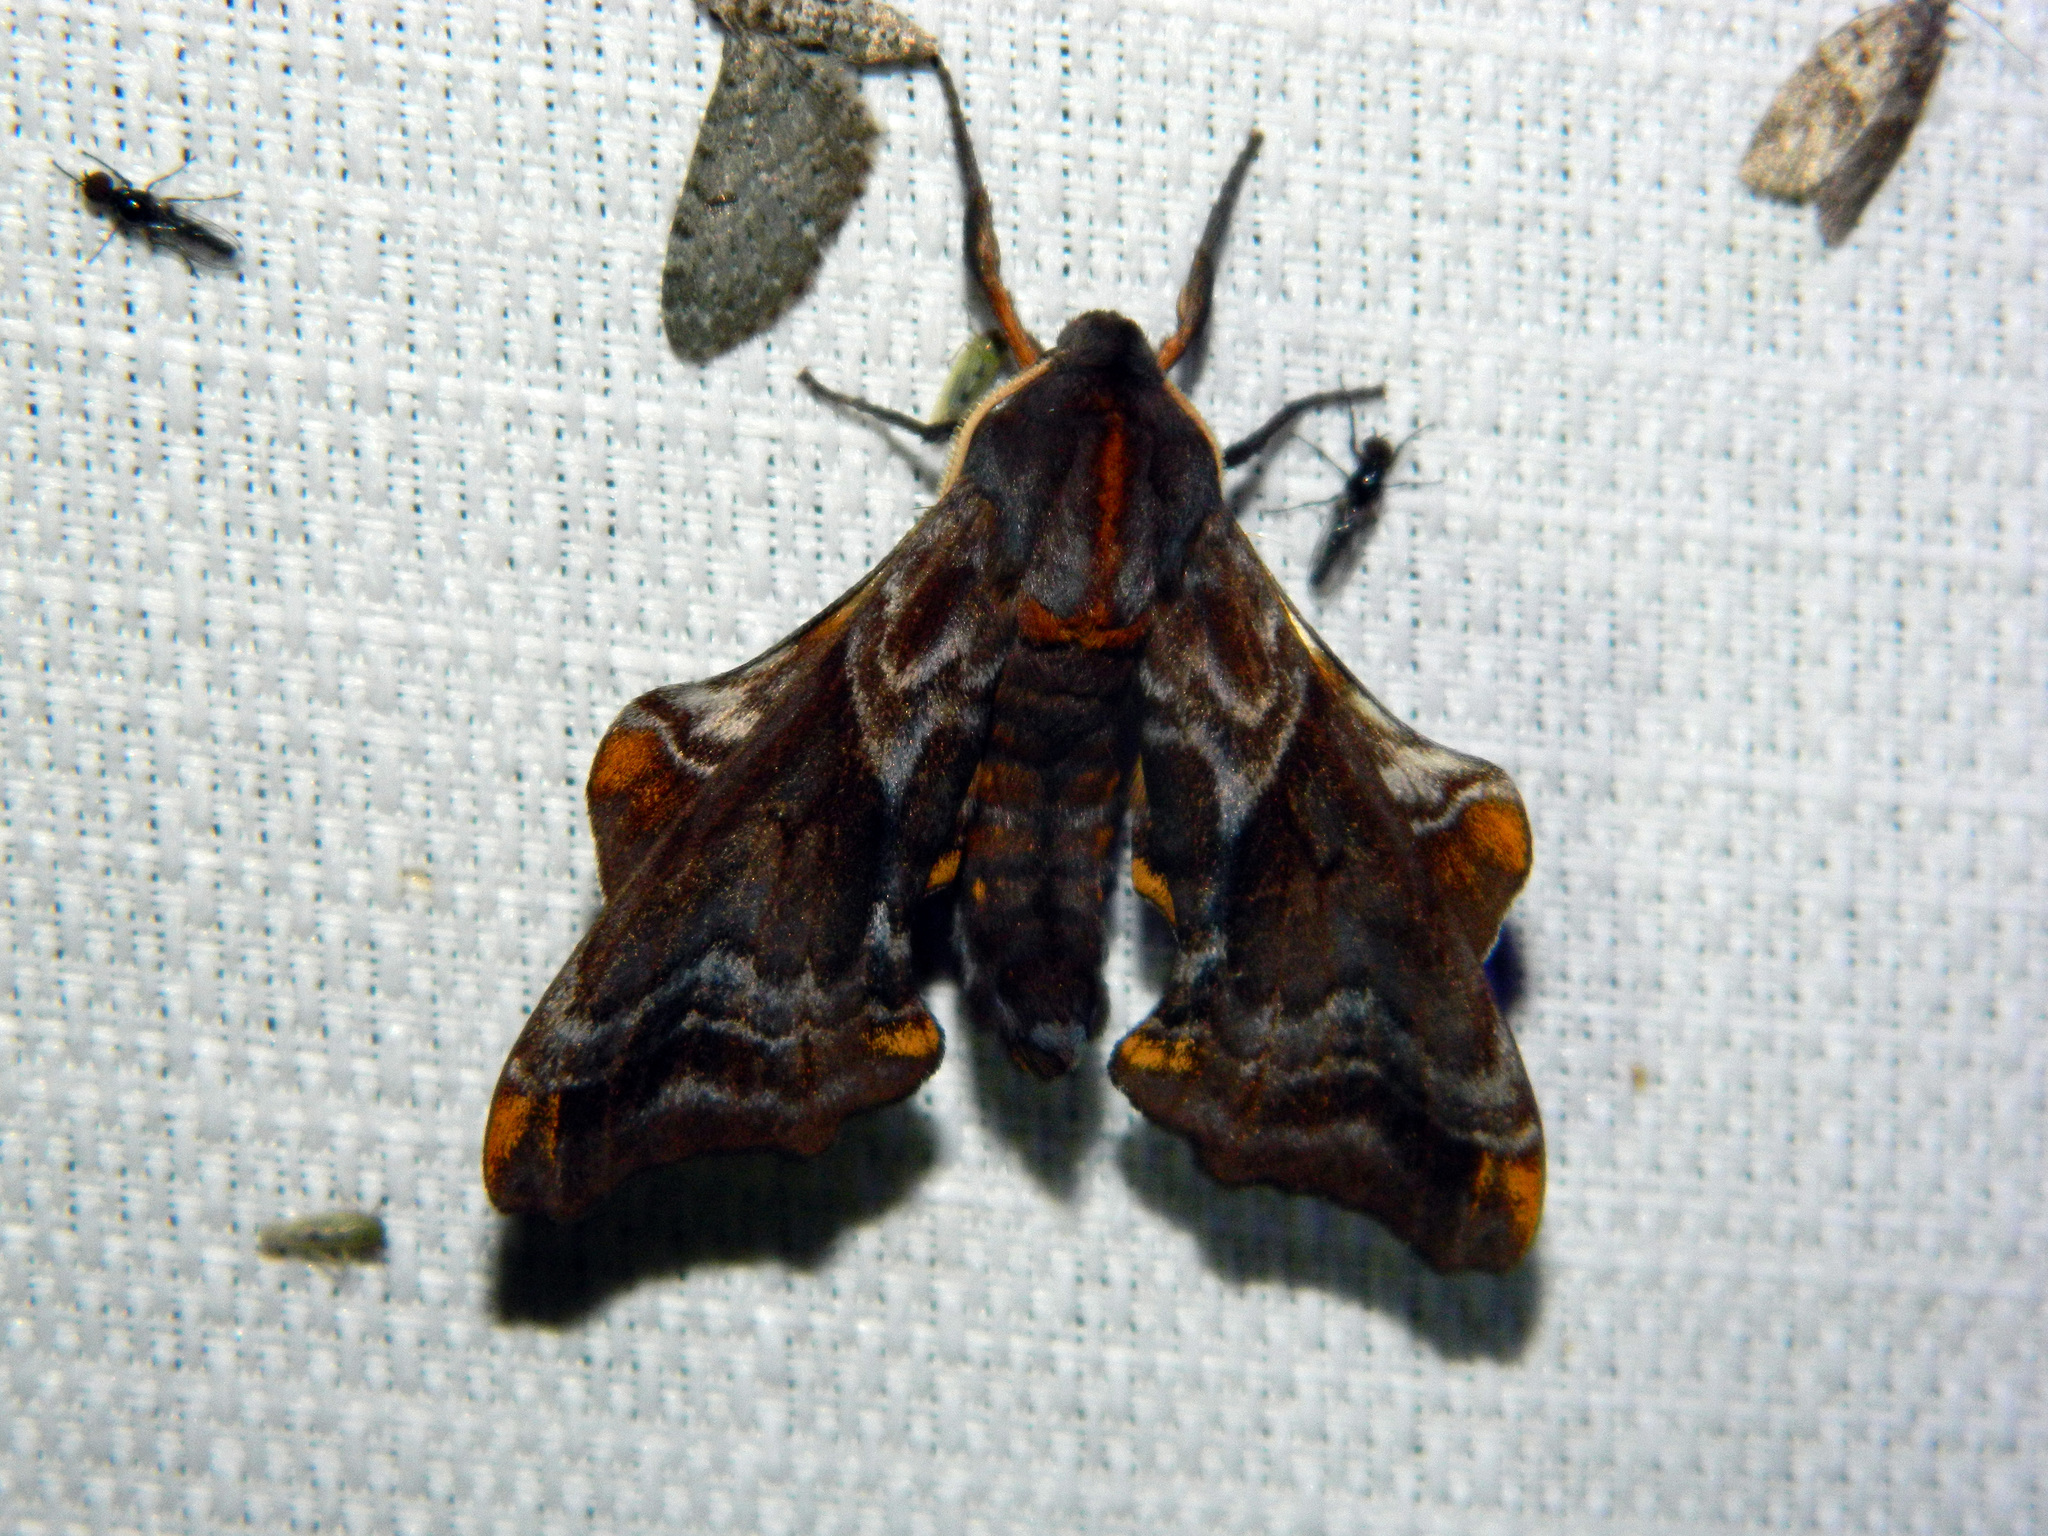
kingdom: Animalia
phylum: Arthropoda
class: Insecta
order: Lepidoptera
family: Sphingidae
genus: Paonias
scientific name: Paonias myops
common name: Small-eyed sphinx
